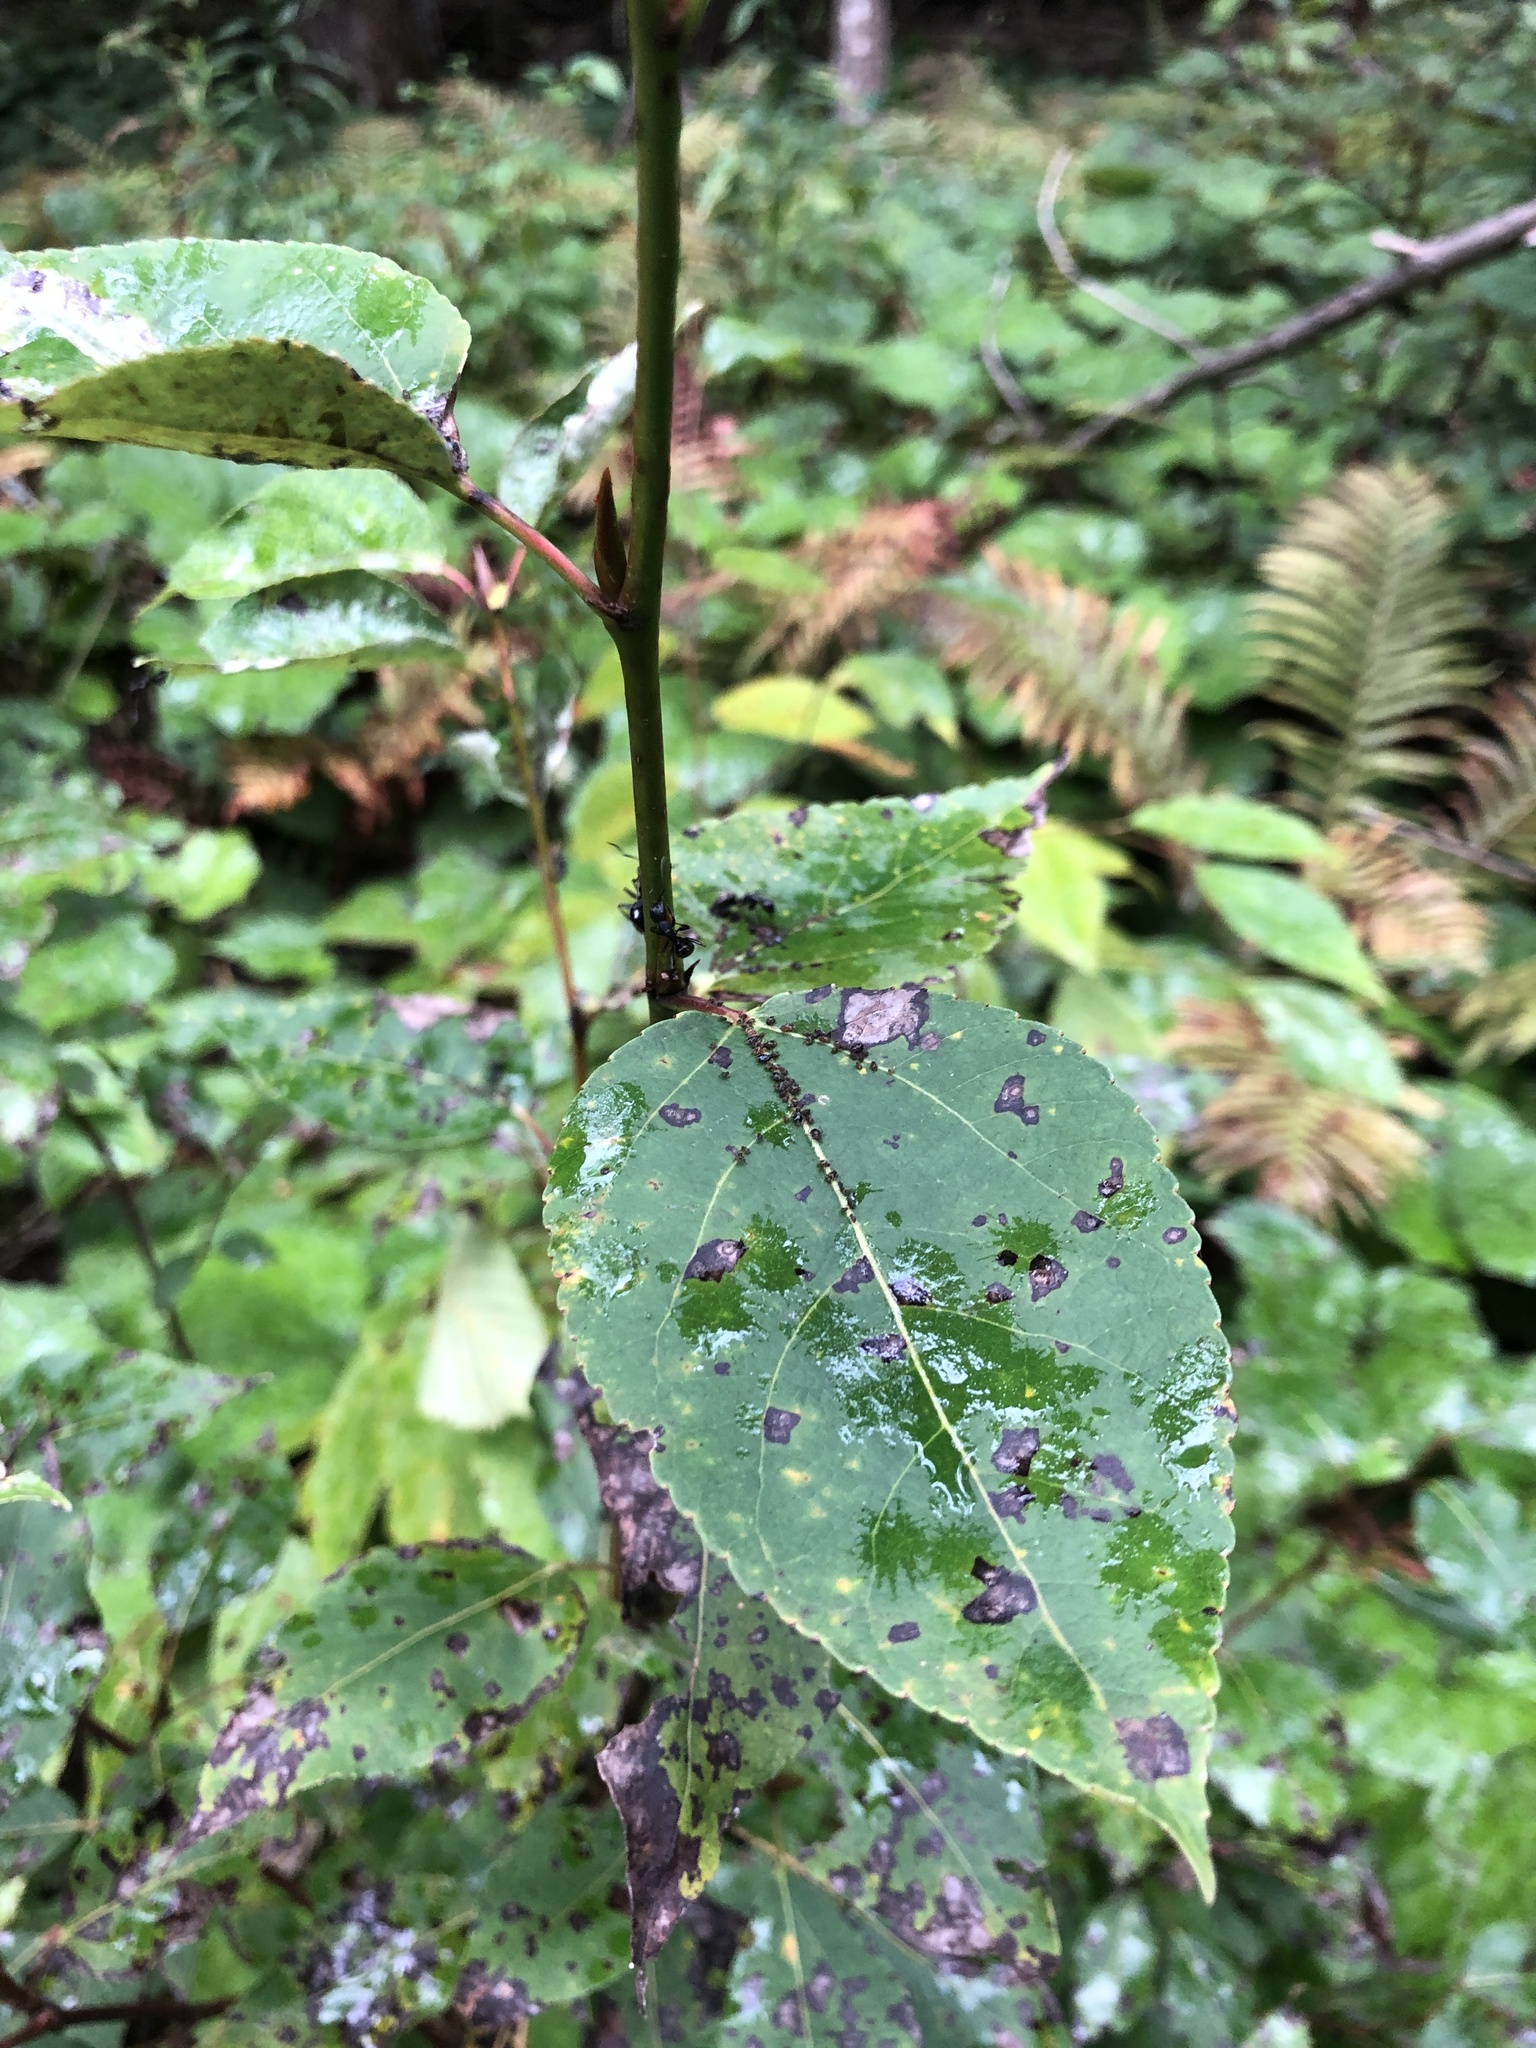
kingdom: Plantae
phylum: Tracheophyta
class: Magnoliopsida
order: Malpighiales
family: Salicaceae
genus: Populus
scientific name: Populus balsamifera
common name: Balsam poplar
